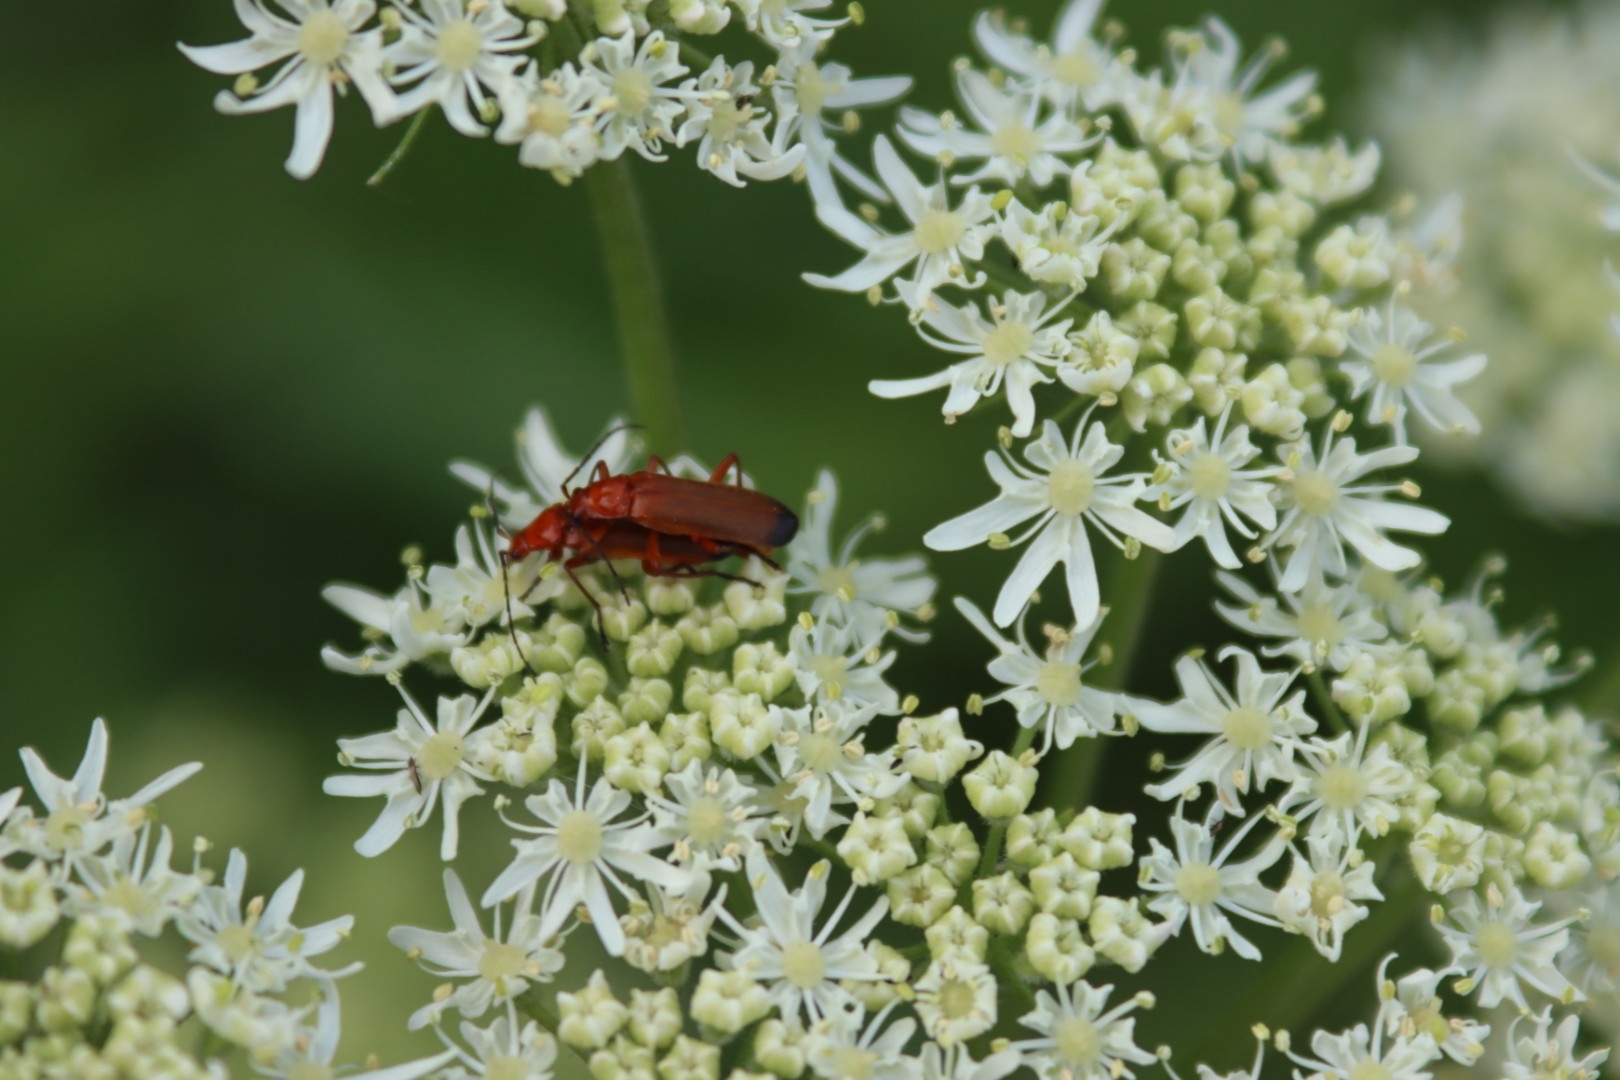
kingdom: Animalia
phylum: Arthropoda
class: Insecta
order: Coleoptera
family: Cantharidae
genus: Rhagonycha
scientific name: Rhagonycha fulva
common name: Common red soldier beetle
